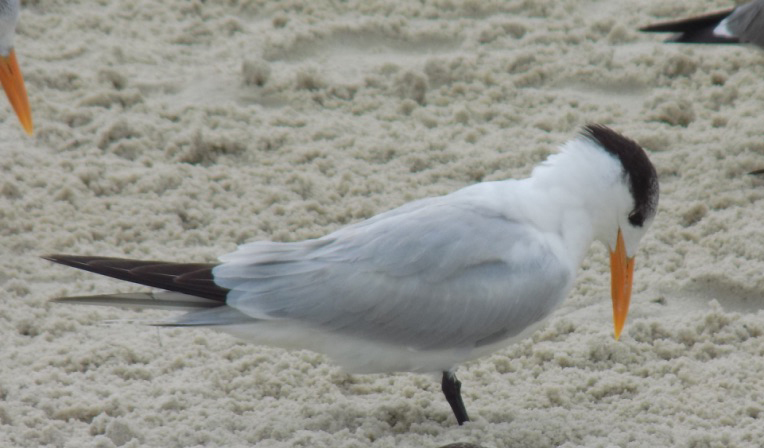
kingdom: Animalia
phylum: Chordata
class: Aves
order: Charadriiformes
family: Laridae
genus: Thalasseus
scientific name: Thalasseus maximus
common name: Royal tern
